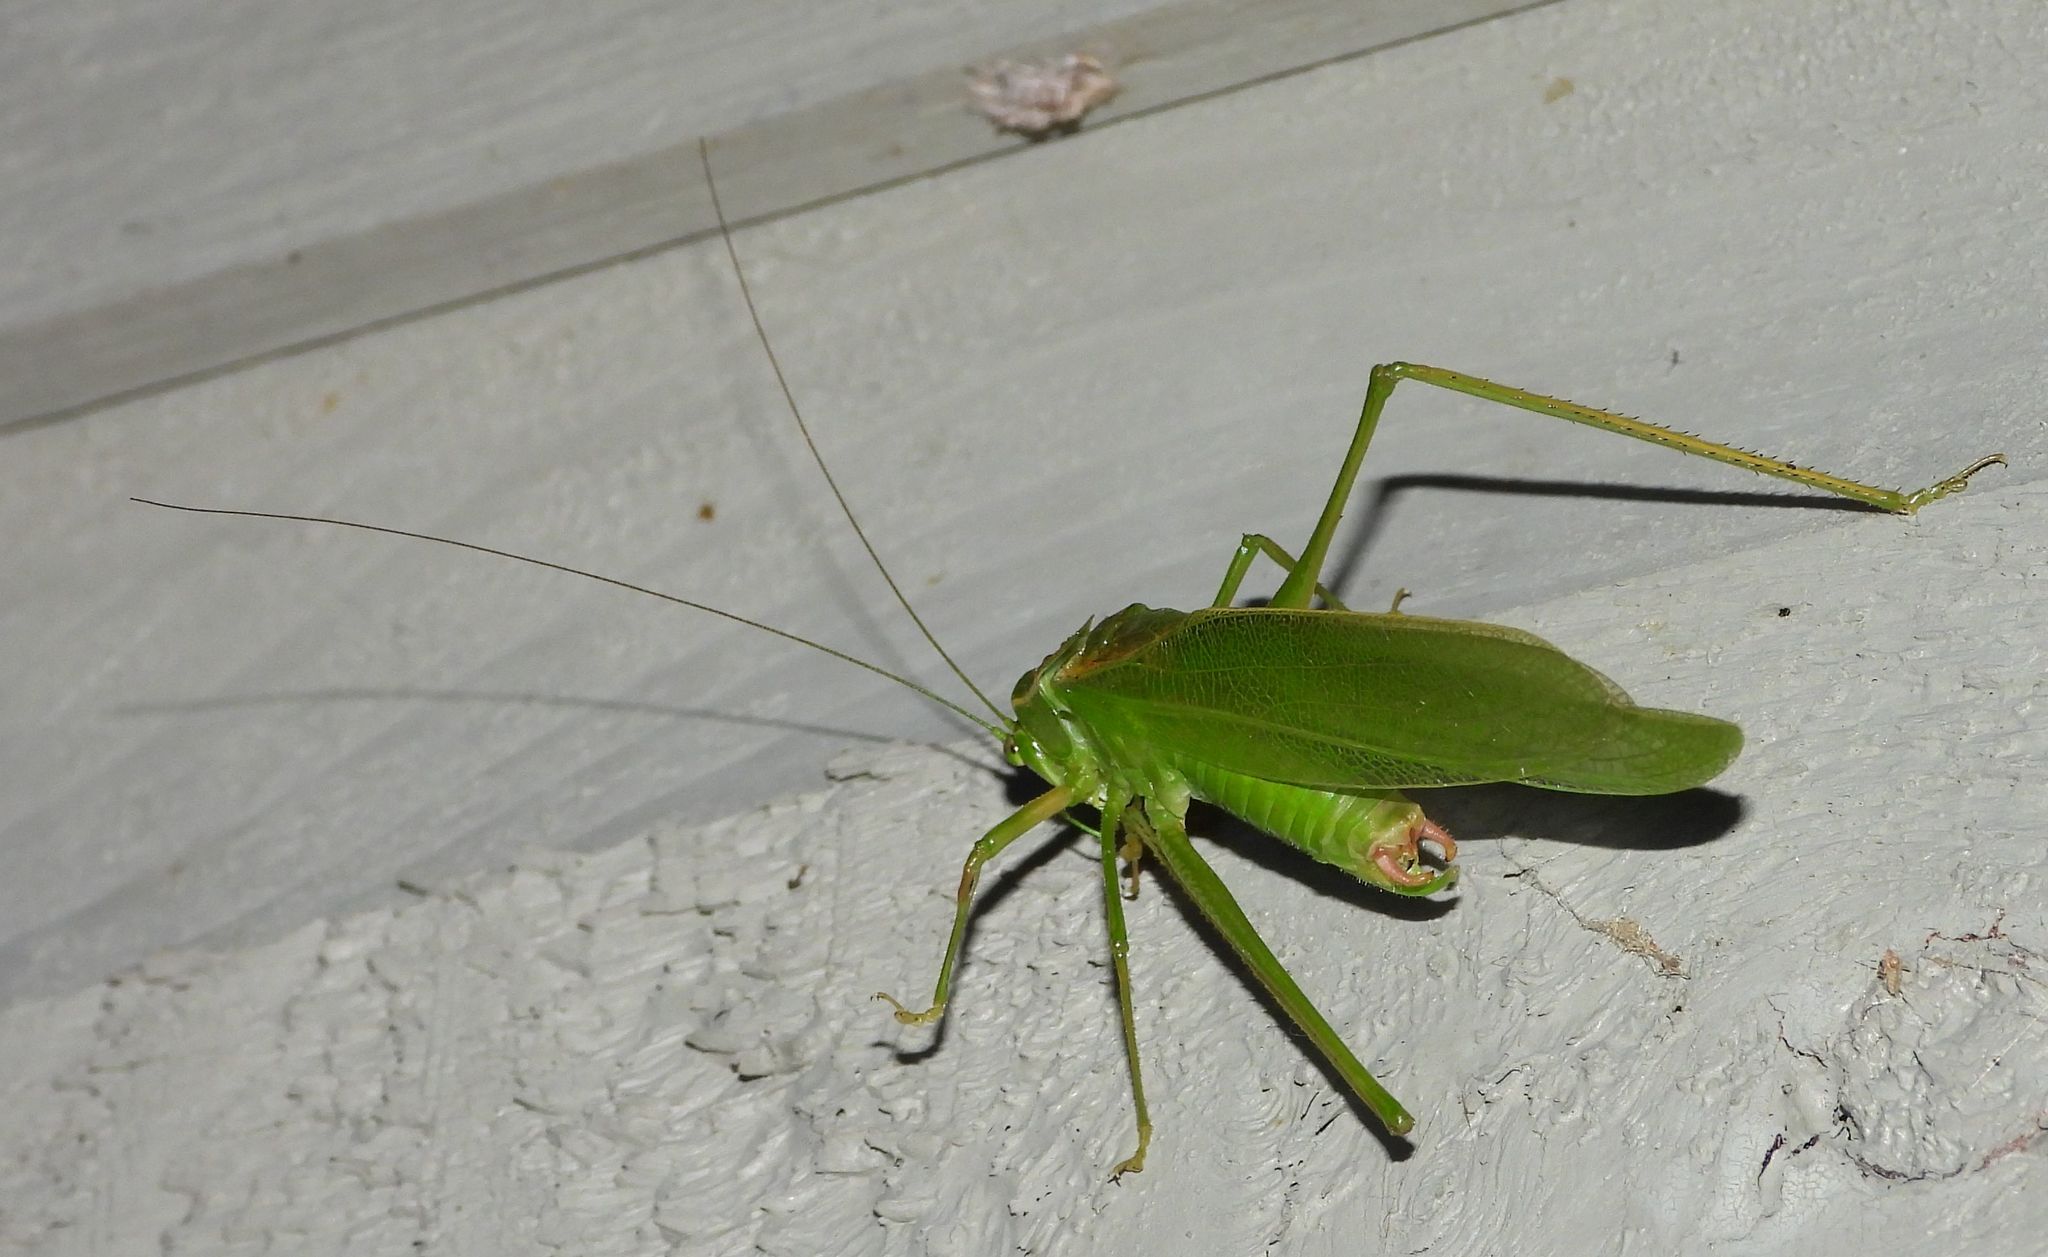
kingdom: Animalia
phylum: Arthropoda
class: Insecta
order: Orthoptera
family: Tettigoniidae
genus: Scudderia
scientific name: Scudderia septentrionalis
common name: Northern bush-katydid
